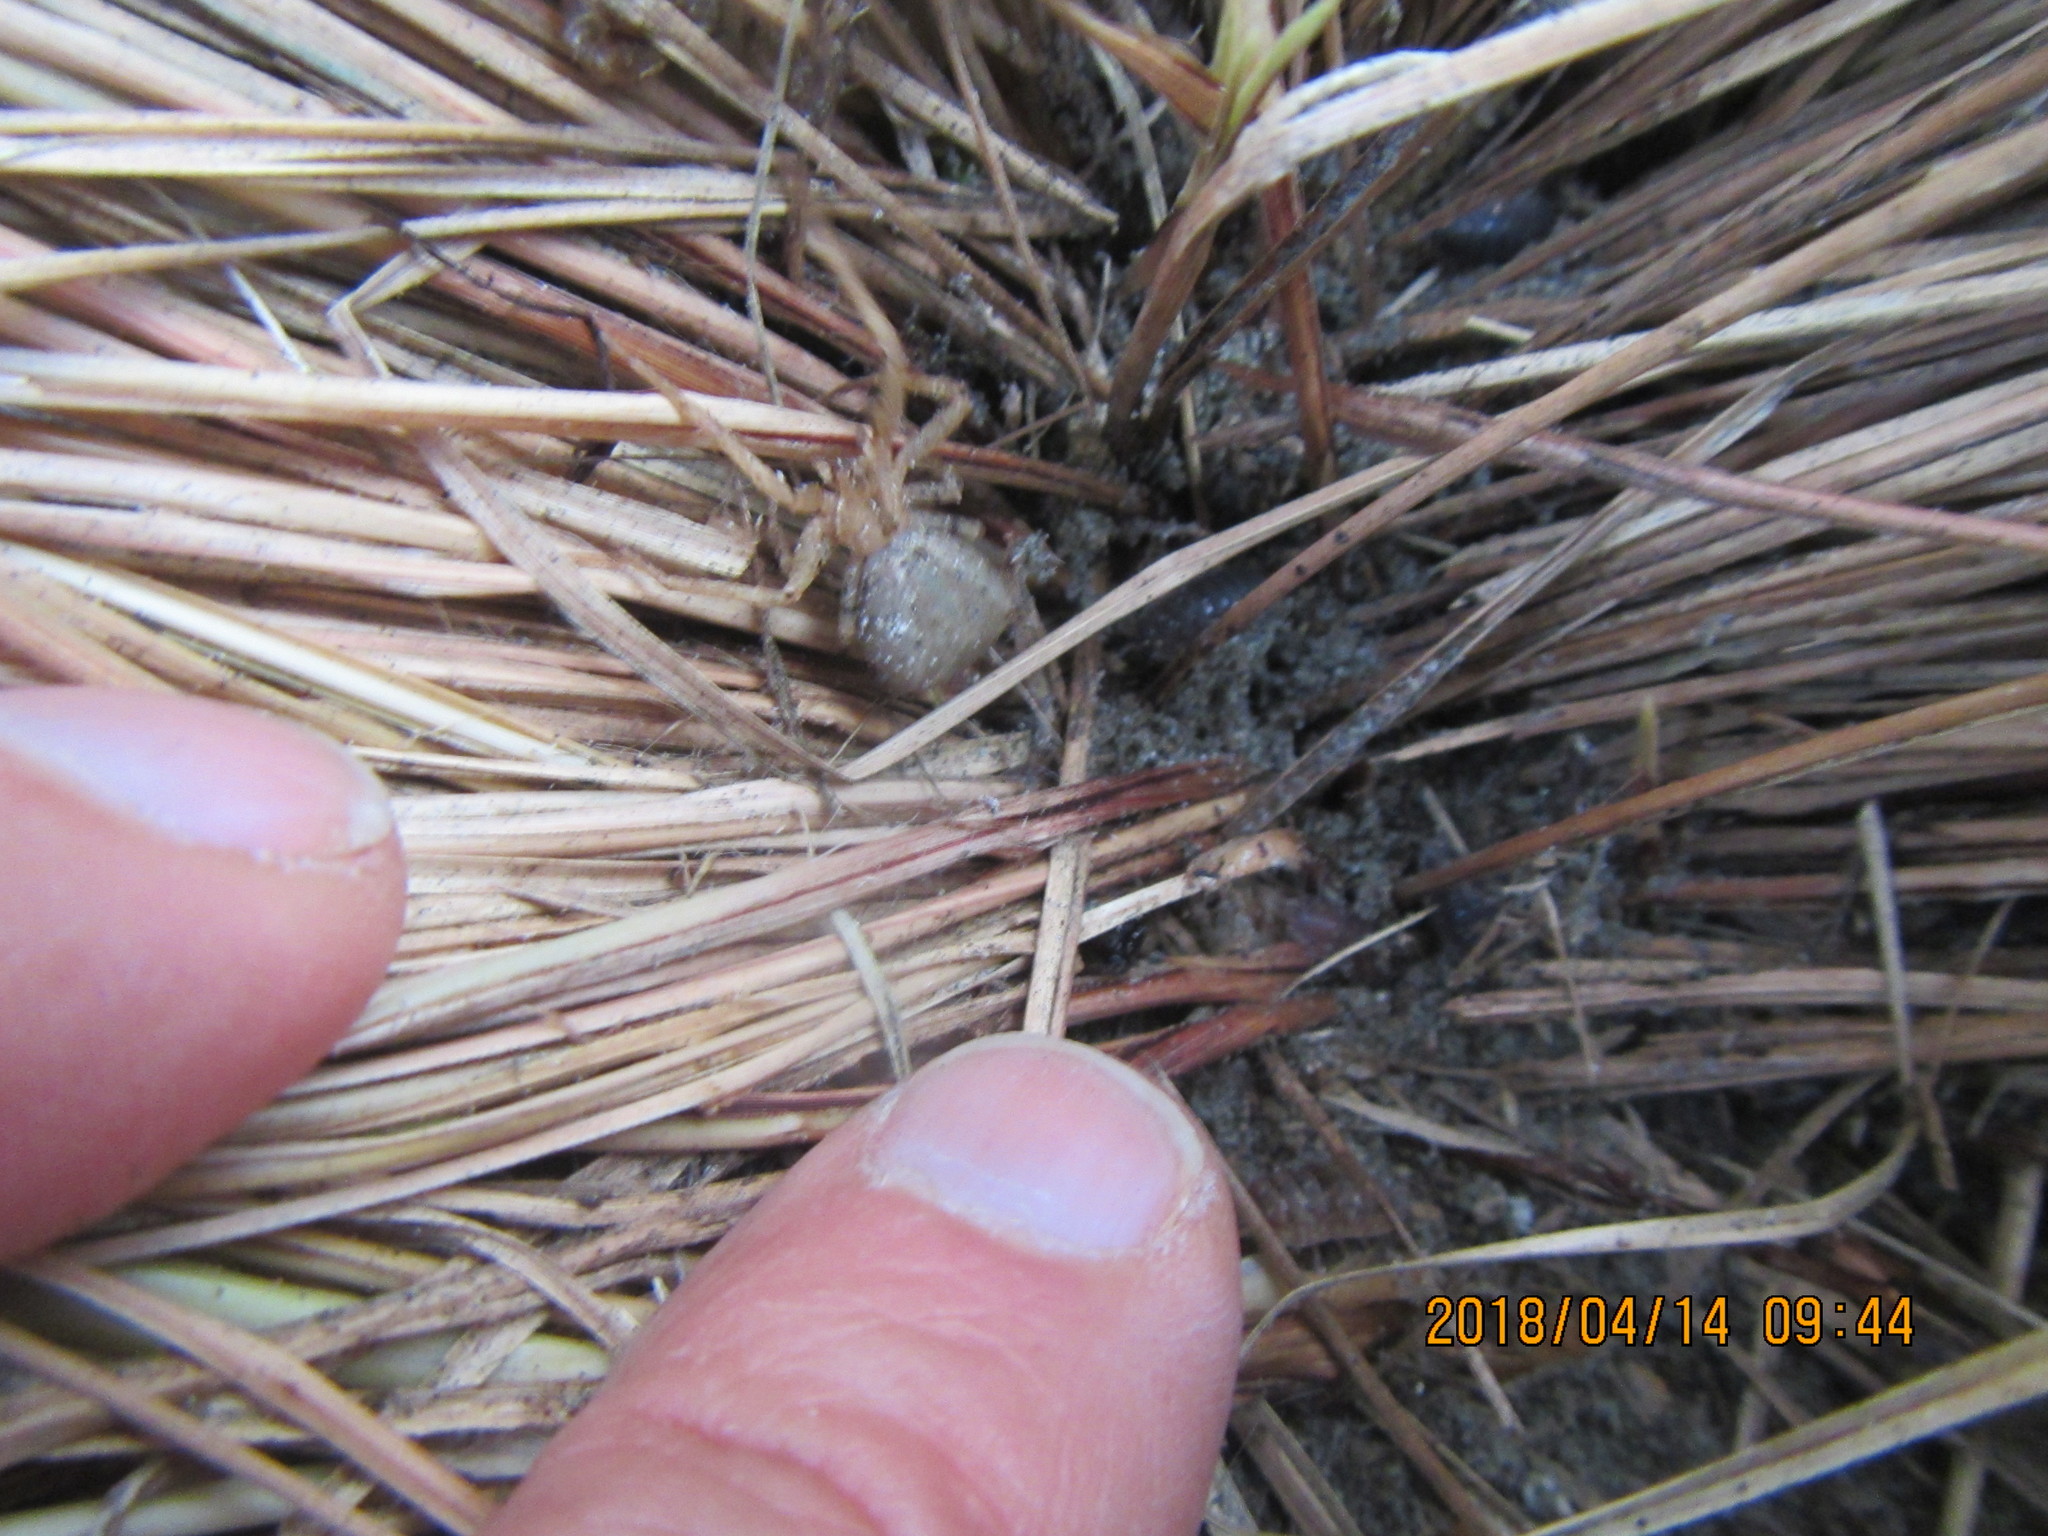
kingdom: Animalia
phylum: Arthropoda
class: Arachnida
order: Araneae
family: Thomisidae
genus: Sidymella
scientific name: Sidymella trapezia
